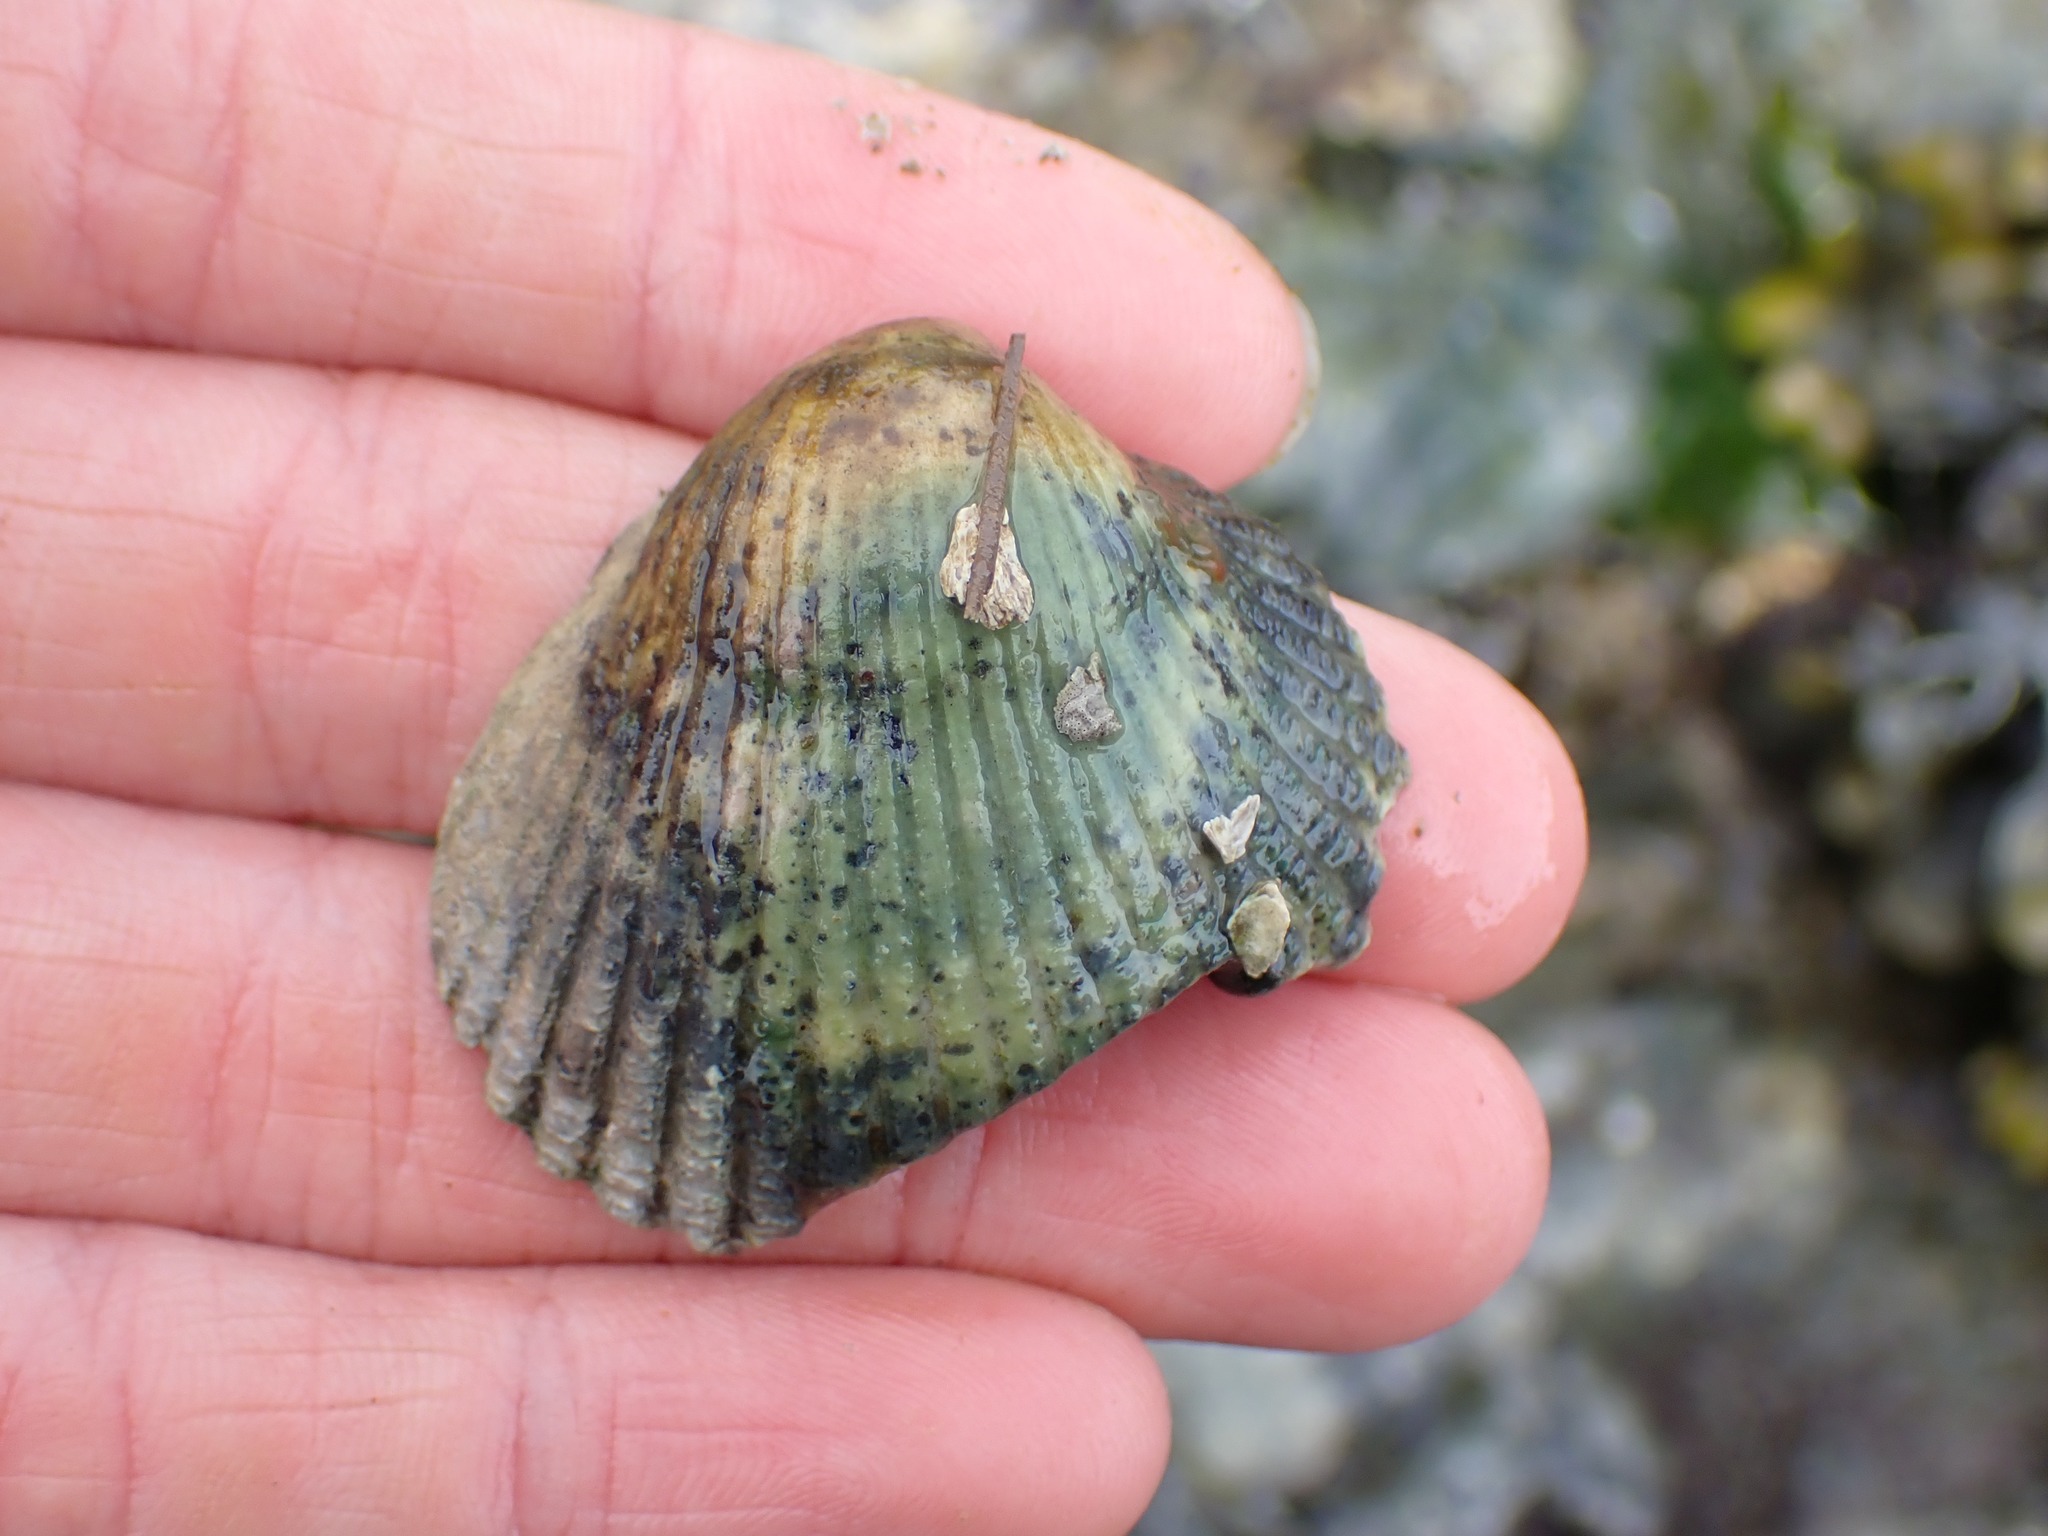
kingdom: Animalia
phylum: Mollusca
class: Bivalvia
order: Cardiida
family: Cardiidae
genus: Clinocardium
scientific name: Clinocardium nuttallii
